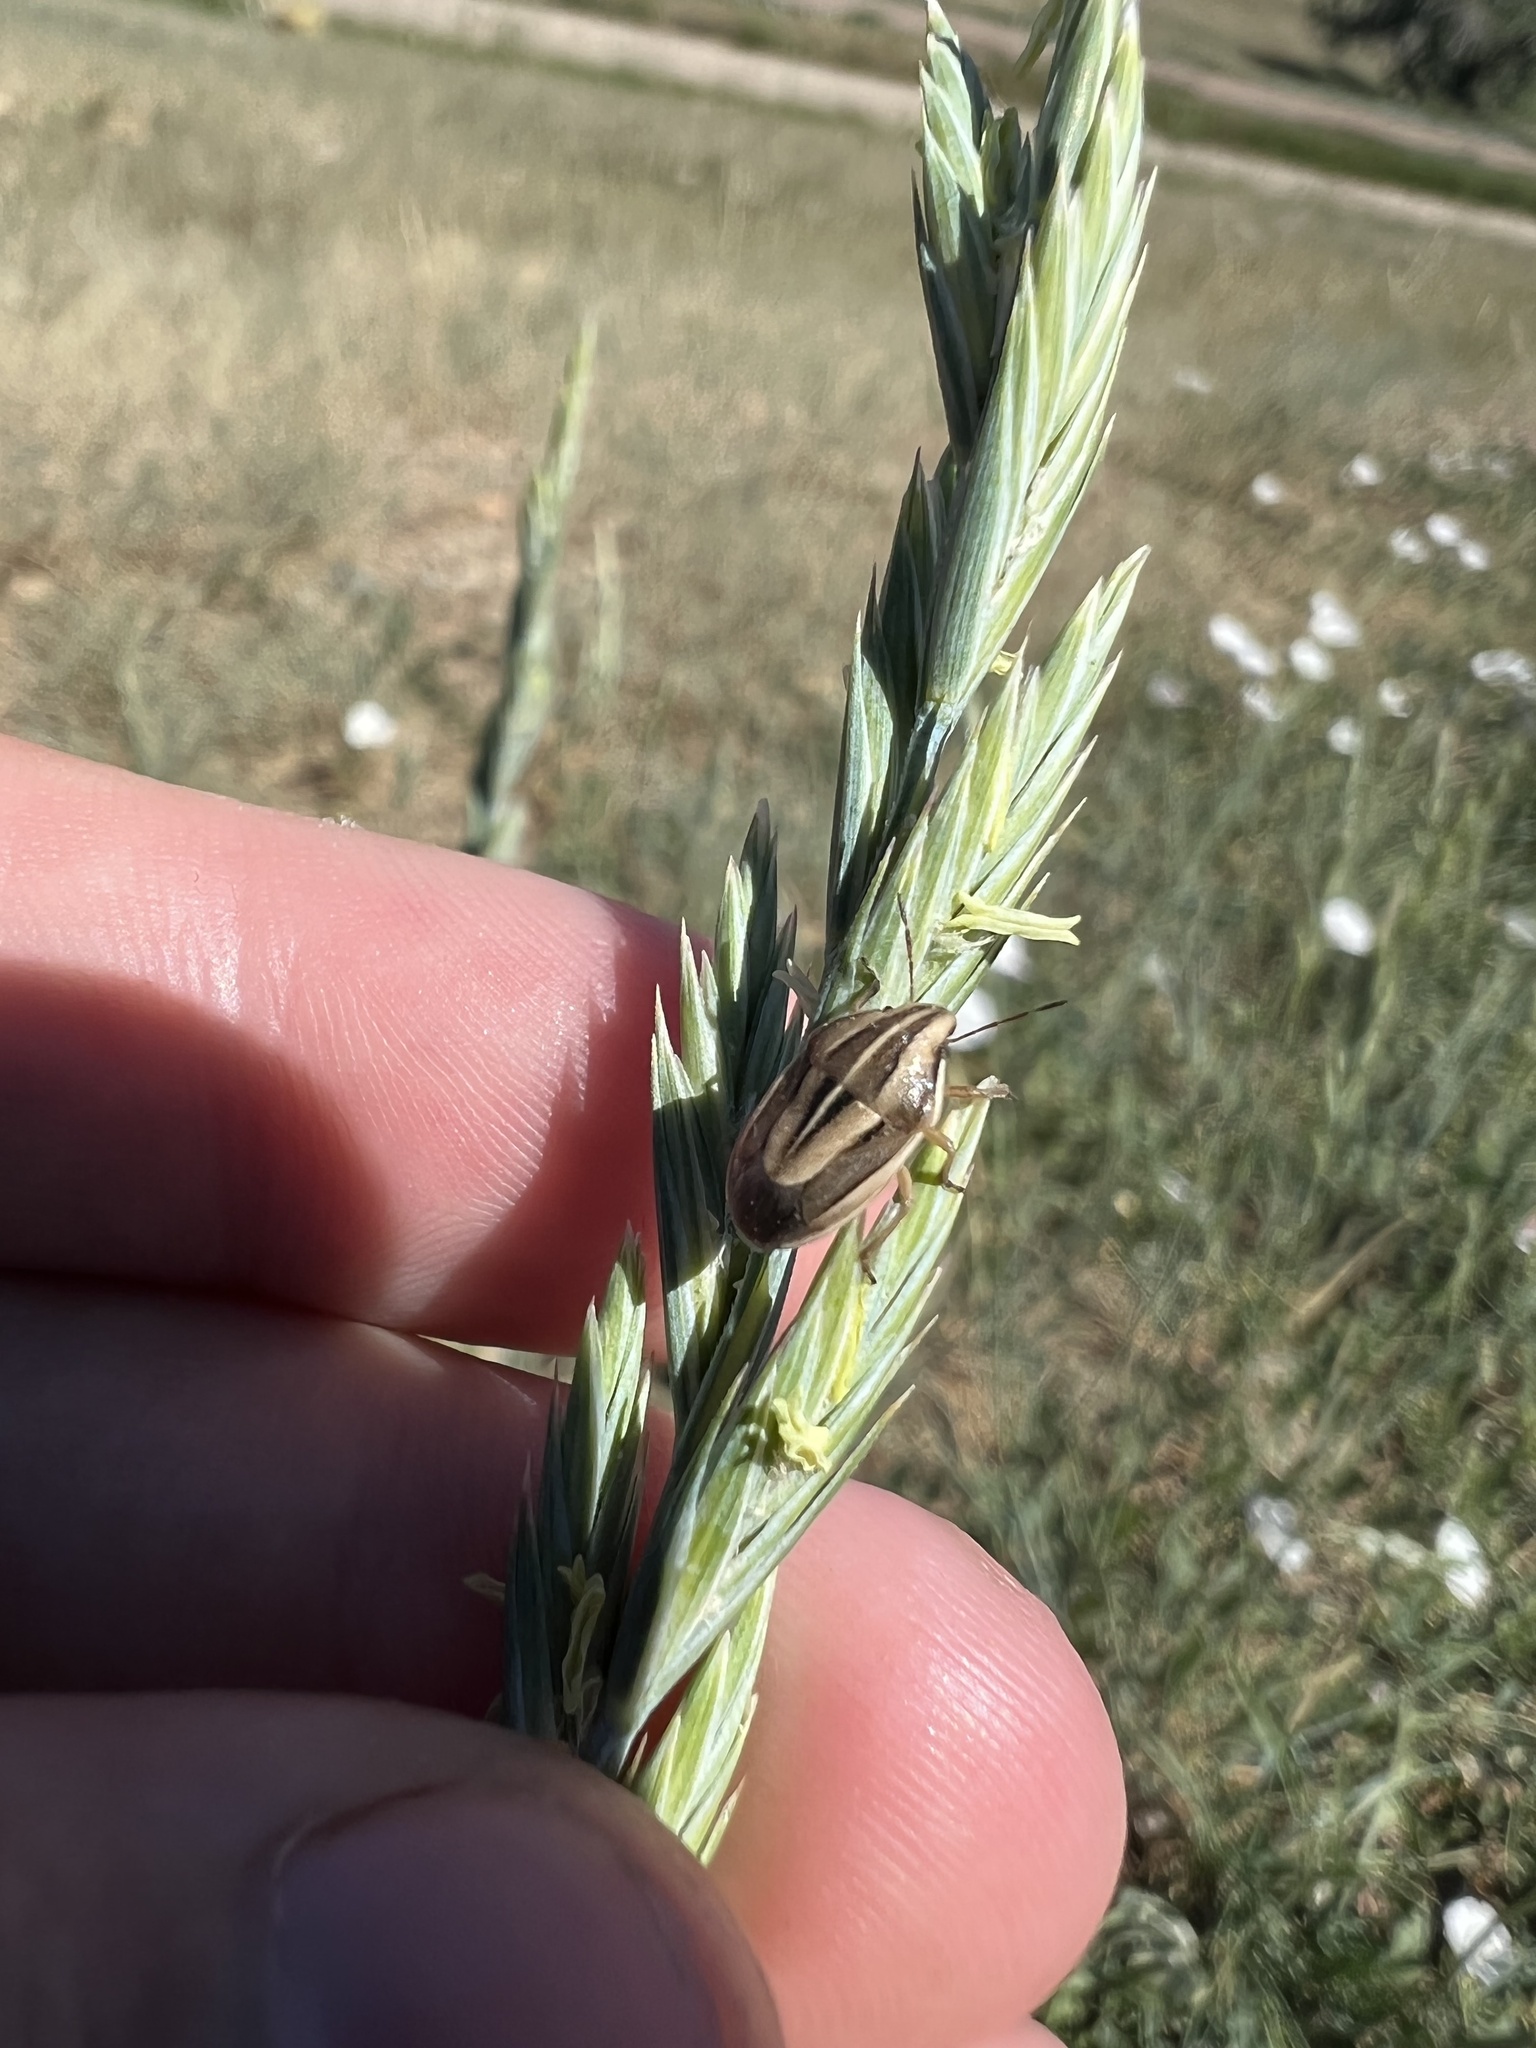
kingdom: Animalia
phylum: Arthropoda
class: Insecta
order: Hemiptera
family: Pentatomidae
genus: Aelia
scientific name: Aelia americana
